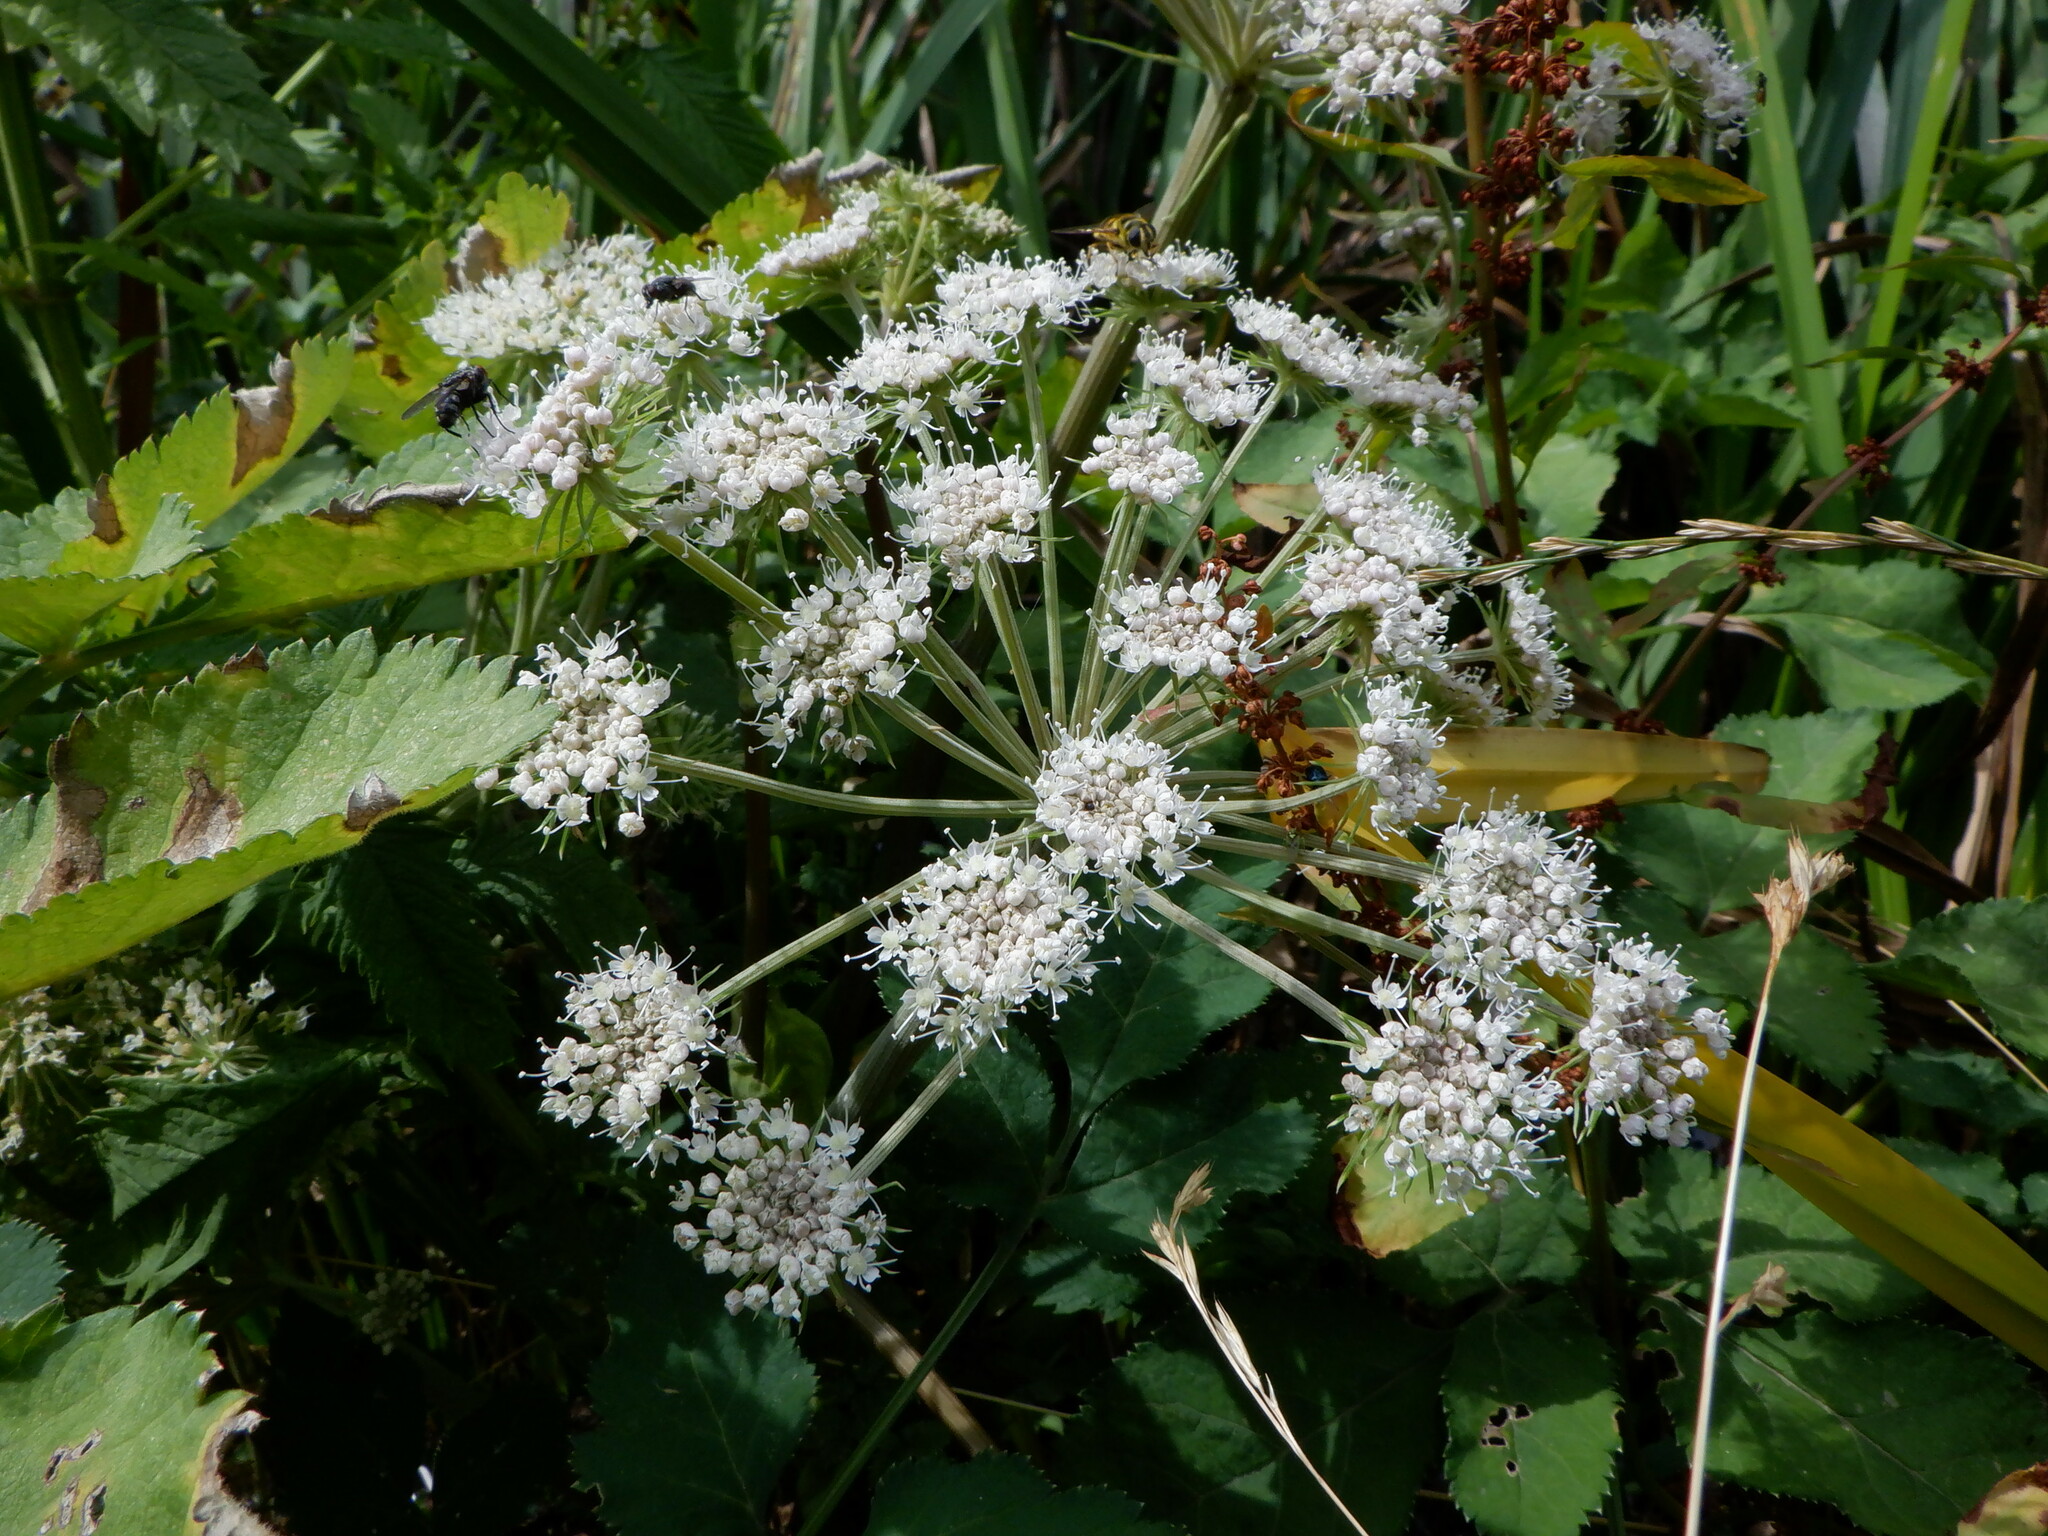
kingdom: Plantae
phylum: Tracheophyta
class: Magnoliopsida
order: Apiales
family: Apiaceae
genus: Angelica
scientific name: Angelica sylvestris
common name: Wild angelica
